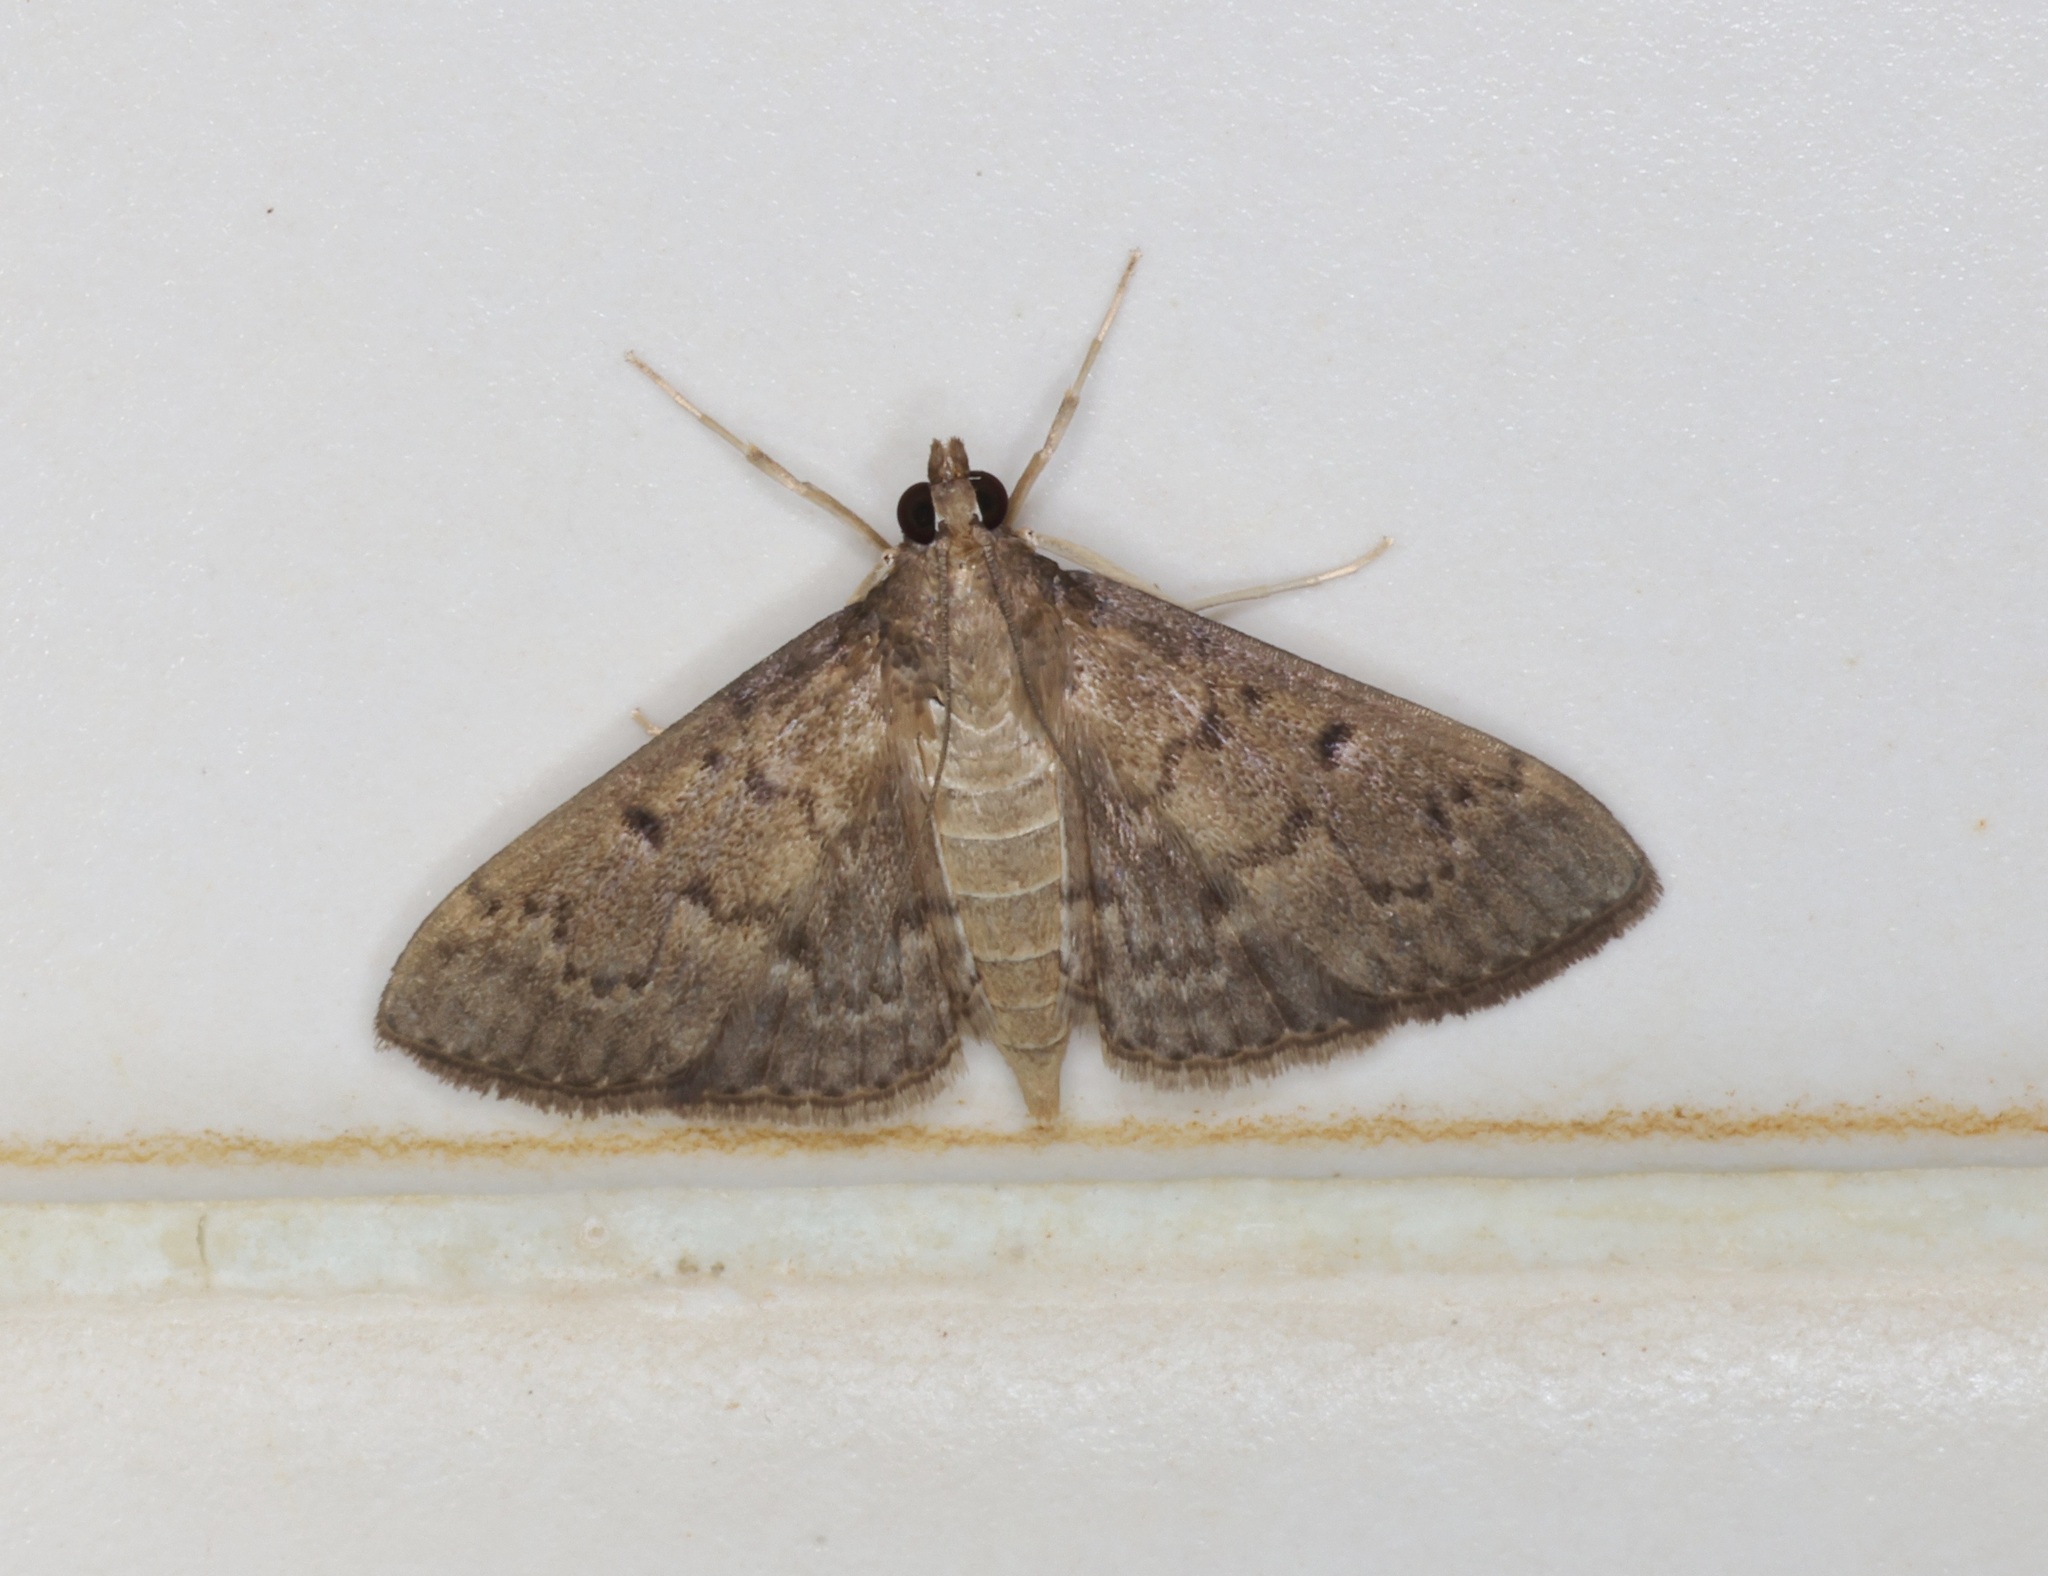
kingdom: Animalia
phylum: Arthropoda
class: Insecta
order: Lepidoptera
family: Crambidae
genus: Herpetogramma
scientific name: Herpetogramma licarsisalis
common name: Grass webworm
